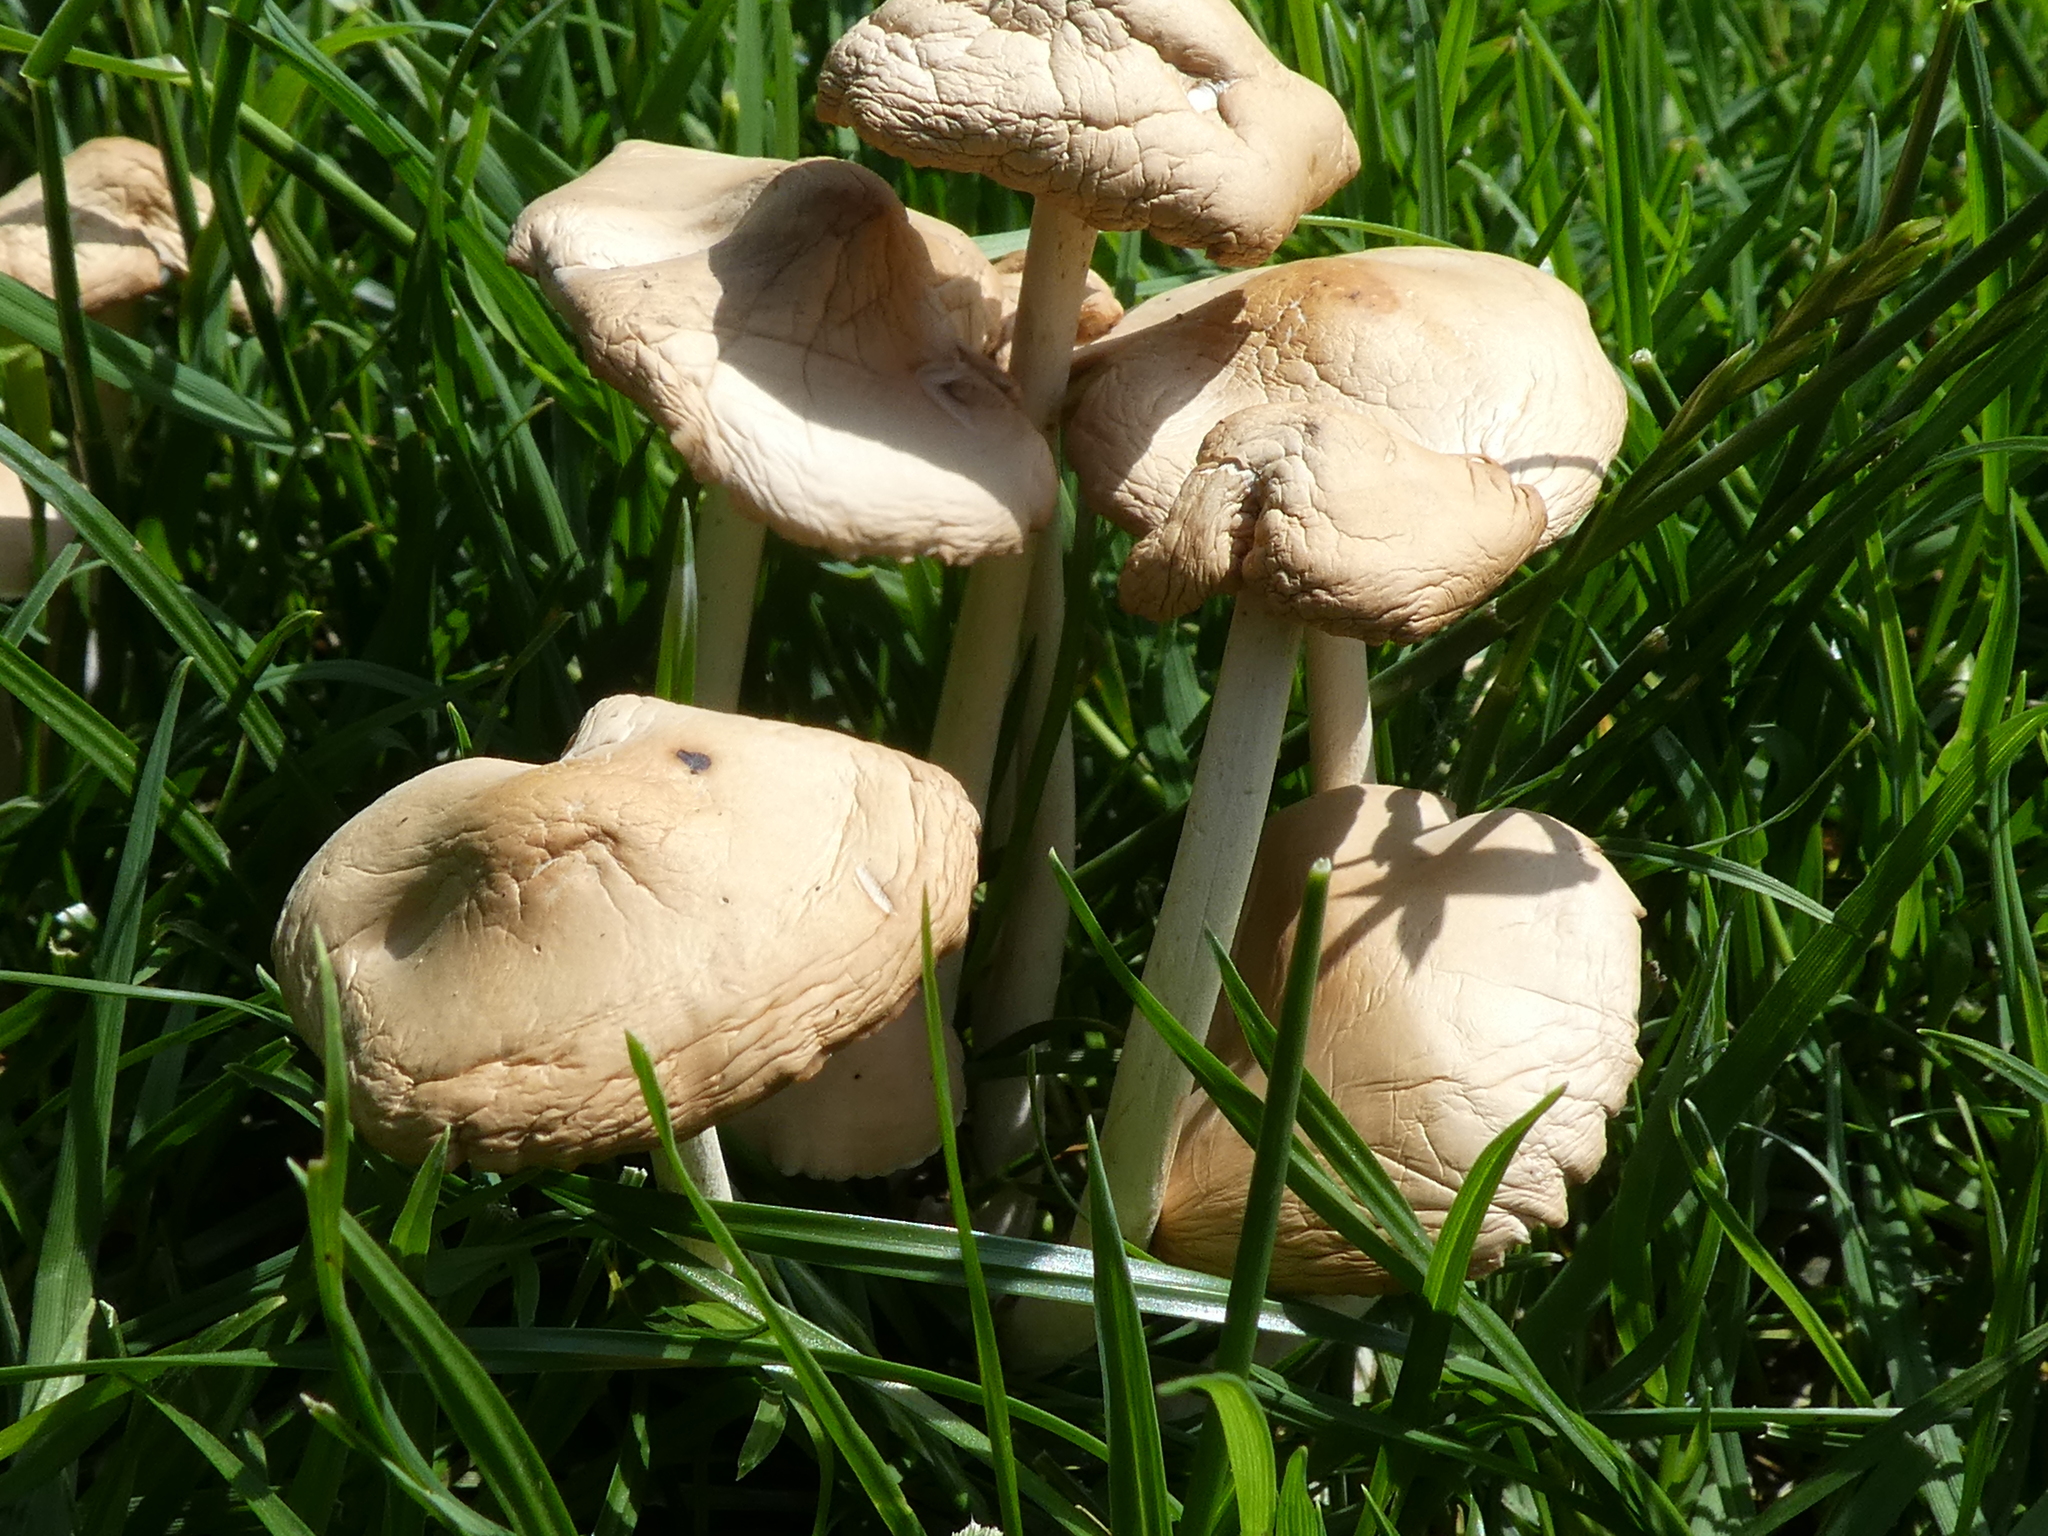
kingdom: Fungi
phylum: Basidiomycota
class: Agaricomycetes
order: Agaricales
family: Marasmiaceae
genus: Marasmius
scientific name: Marasmius oreades
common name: Fairy ring champignon
